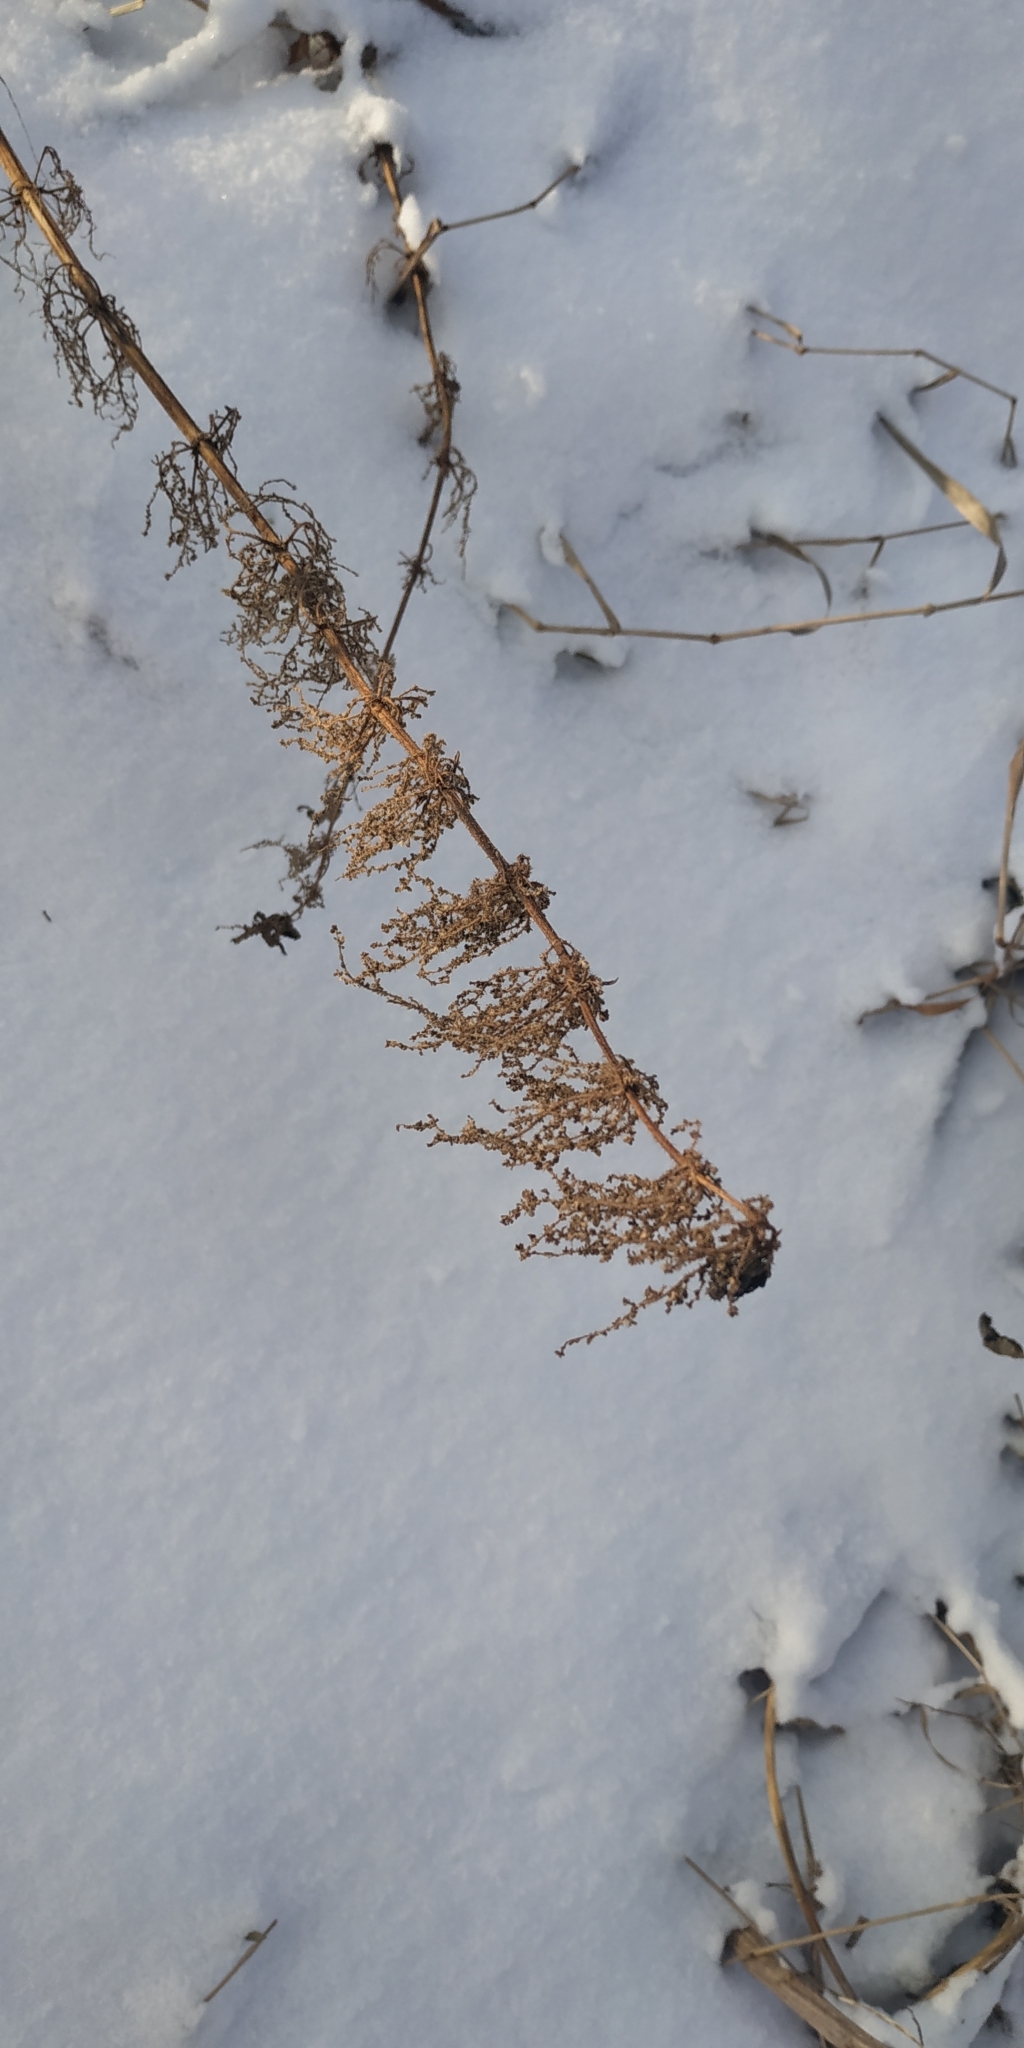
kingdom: Plantae
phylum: Tracheophyta
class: Magnoliopsida
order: Rosales
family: Urticaceae
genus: Urtica
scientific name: Urtica dioica
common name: Common nettle
